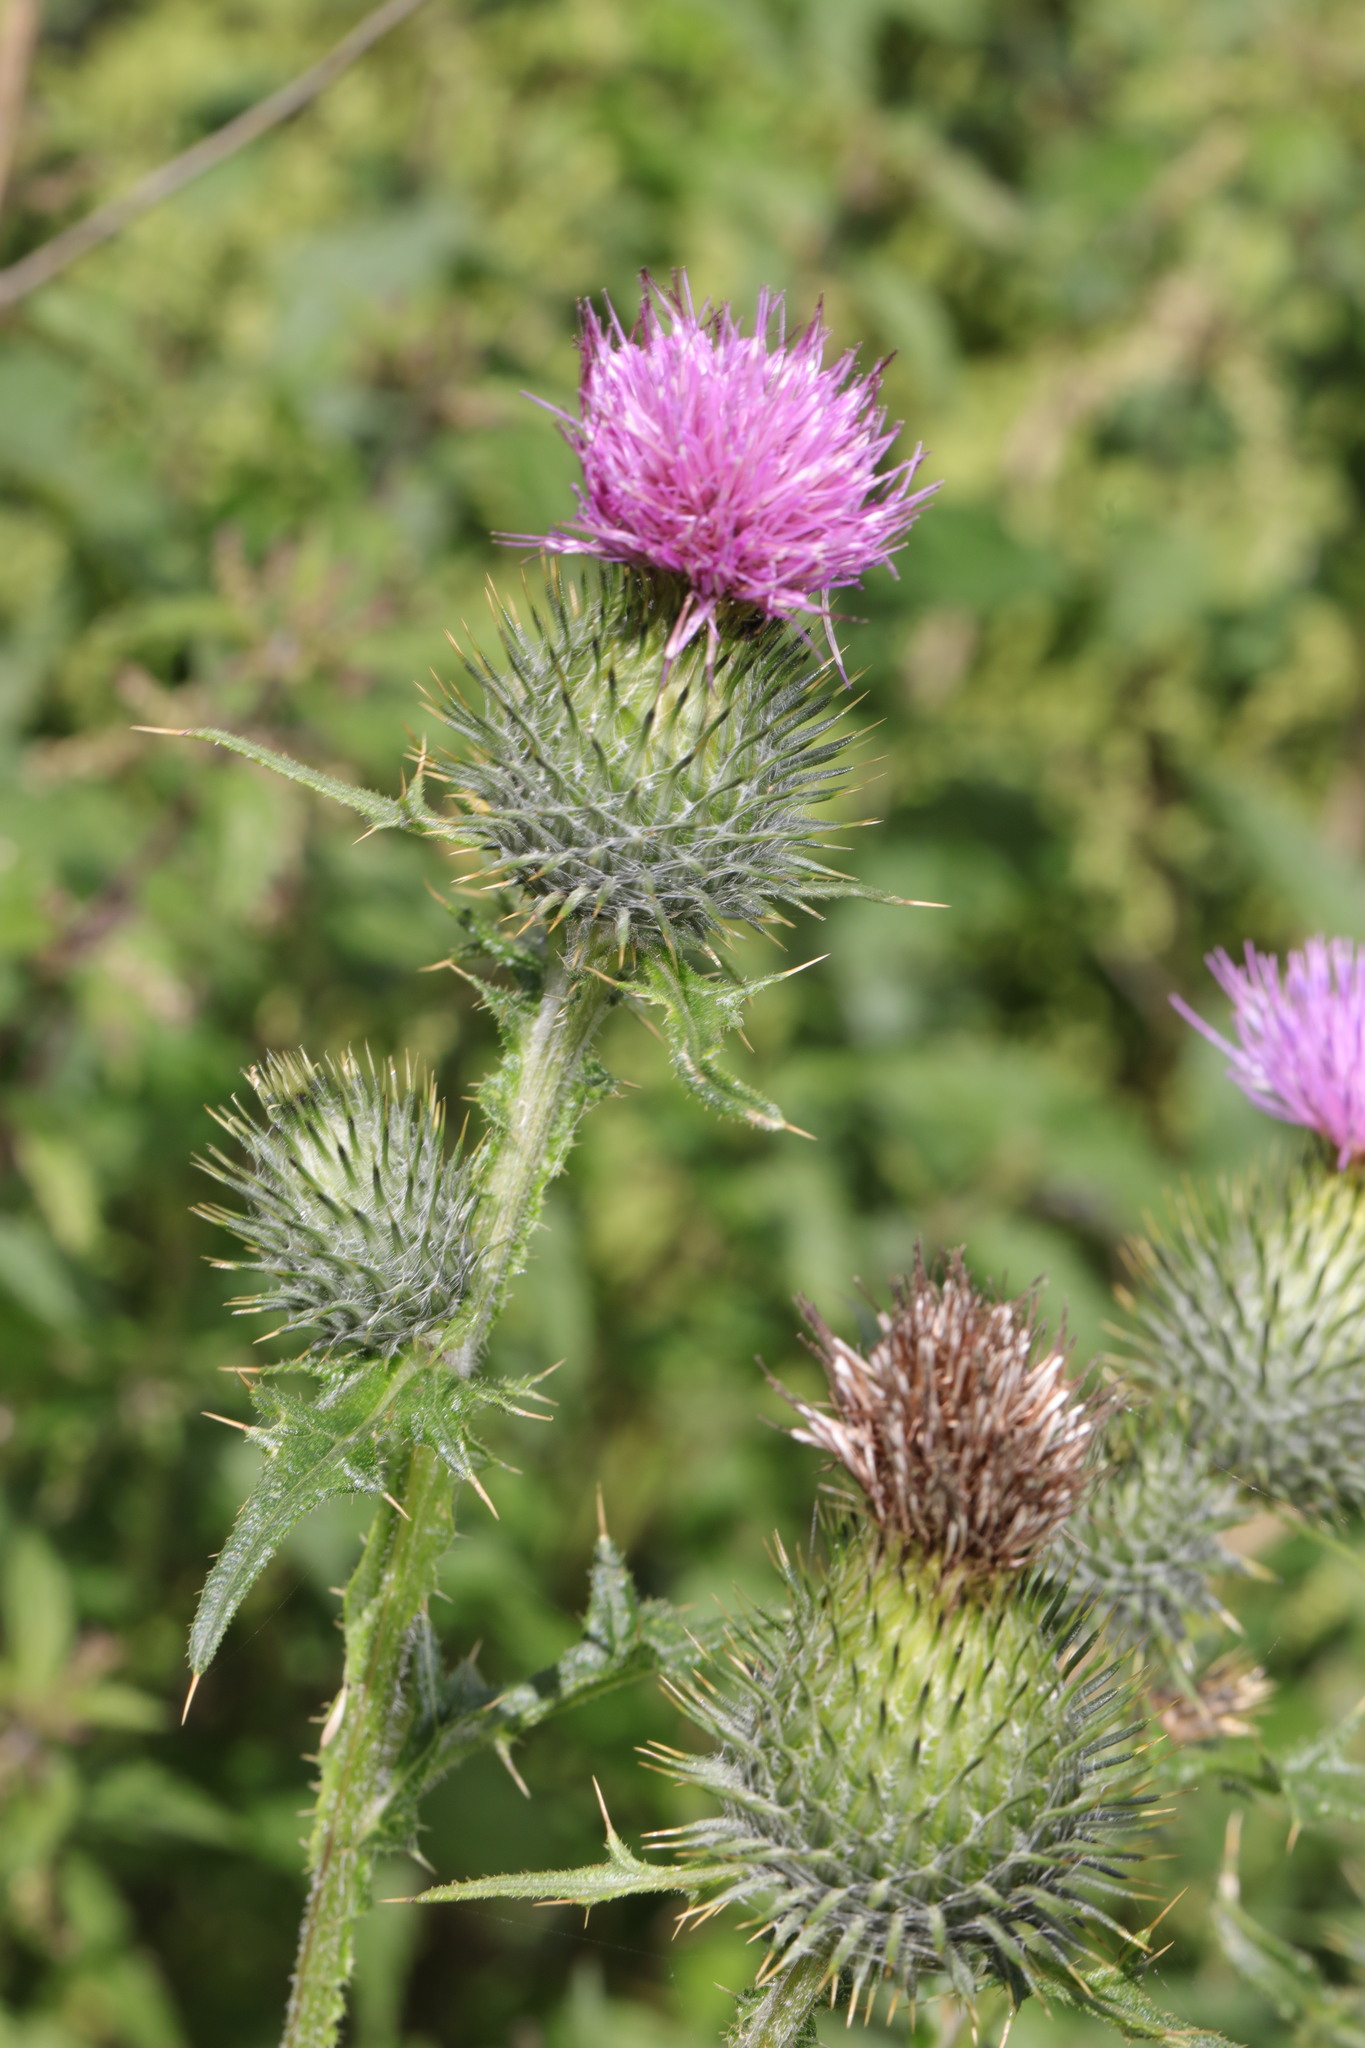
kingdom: Plantae
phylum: Tracheophyta
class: Magnoliopsida
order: Asterales
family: Asteraceae
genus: Cirsium
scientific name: Cirsium vulgare
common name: Bull thistle
